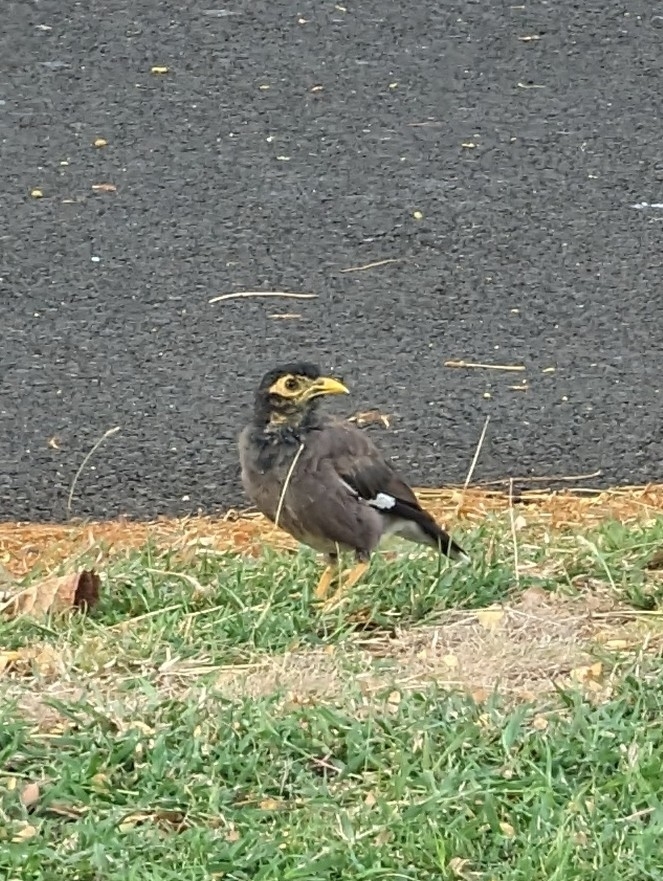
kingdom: Animalia
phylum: Chordata
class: Aves
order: Passeriformes
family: Sturnidae
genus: Acridotheres
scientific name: Acridotheres tristis
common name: Common myna
